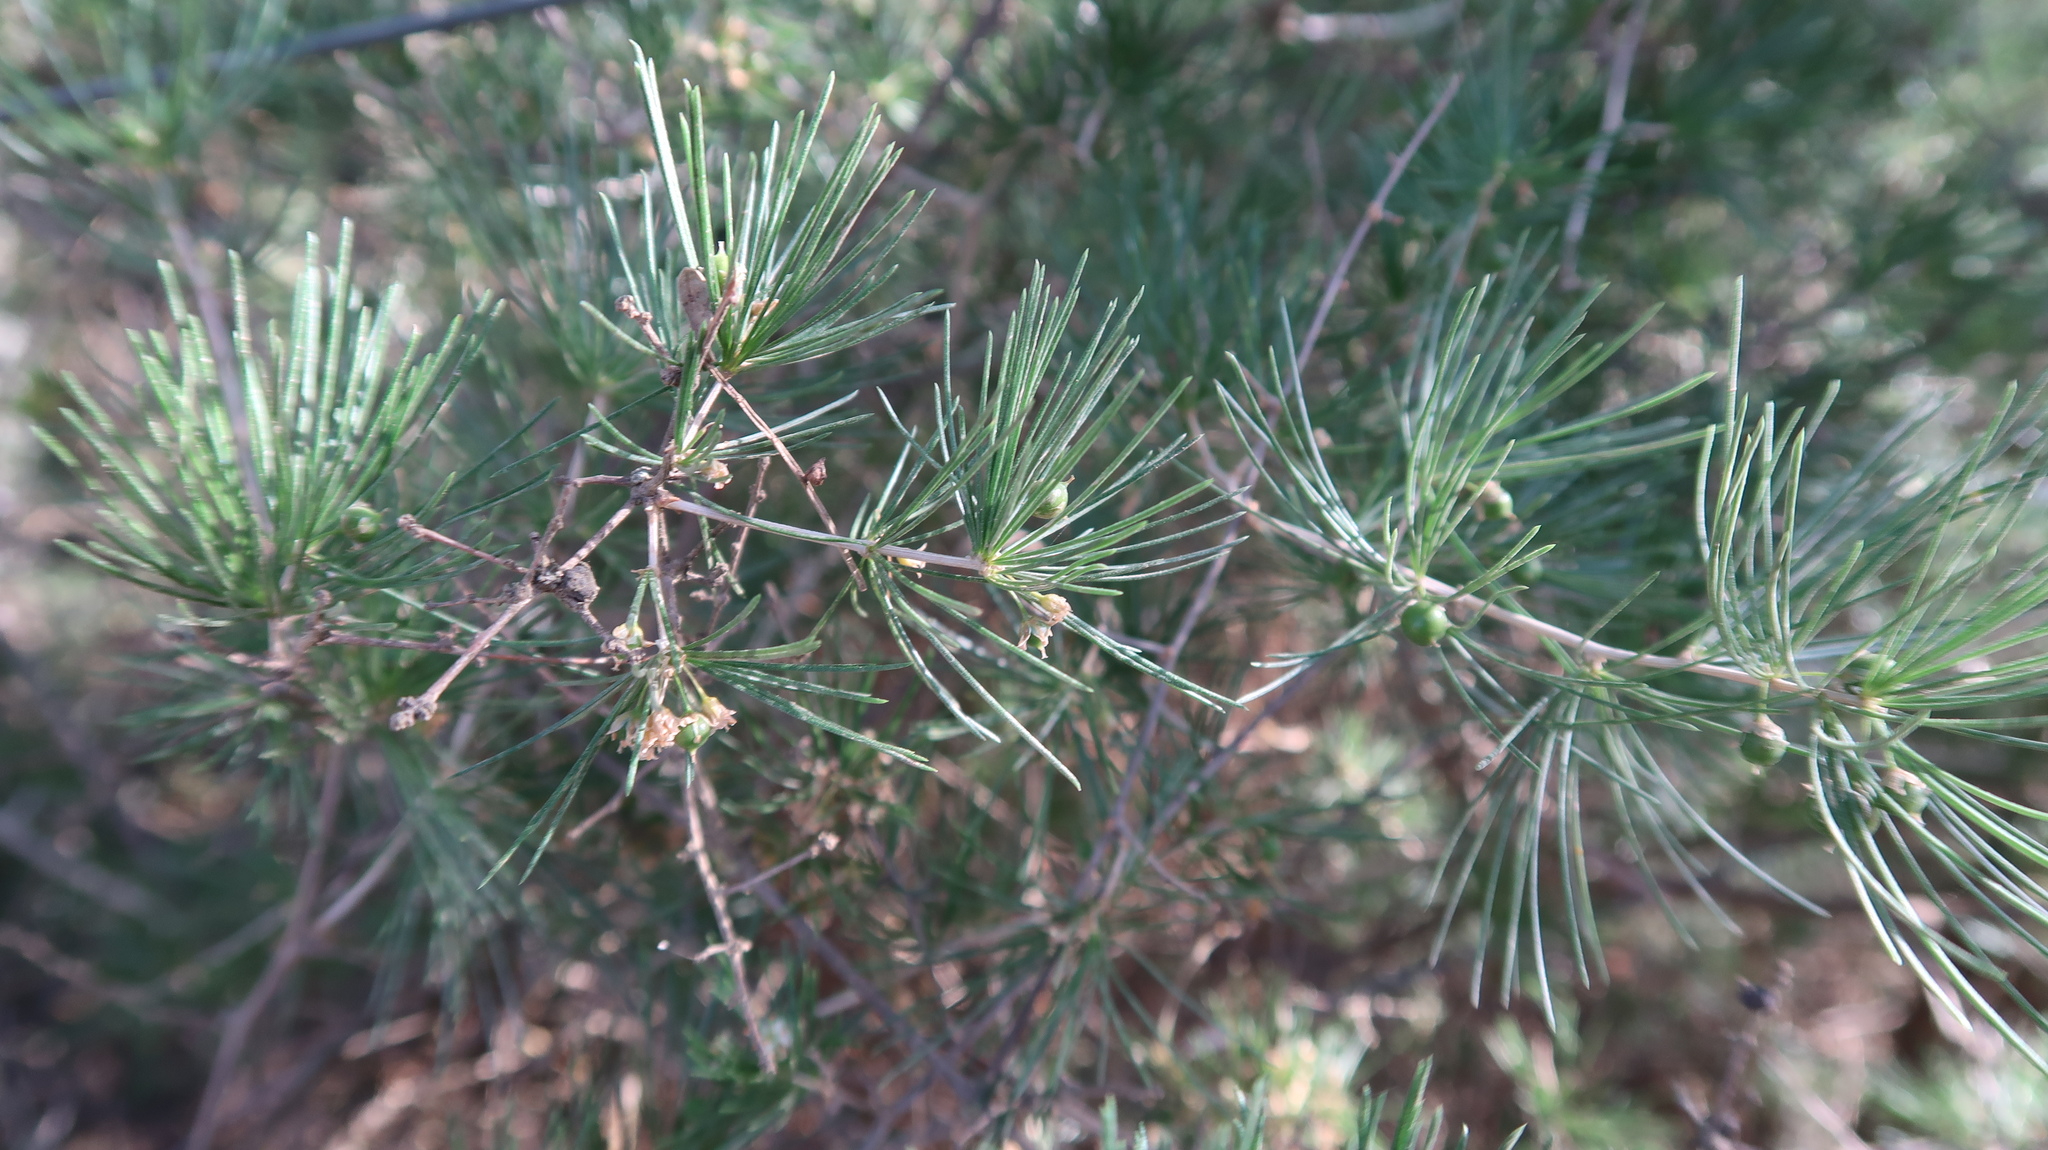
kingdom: Plantae
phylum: Tracheophyta
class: Liliopsida
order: Asparagales
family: Asparagaceae
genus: Asparagus
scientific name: Asparagus retrofractus
